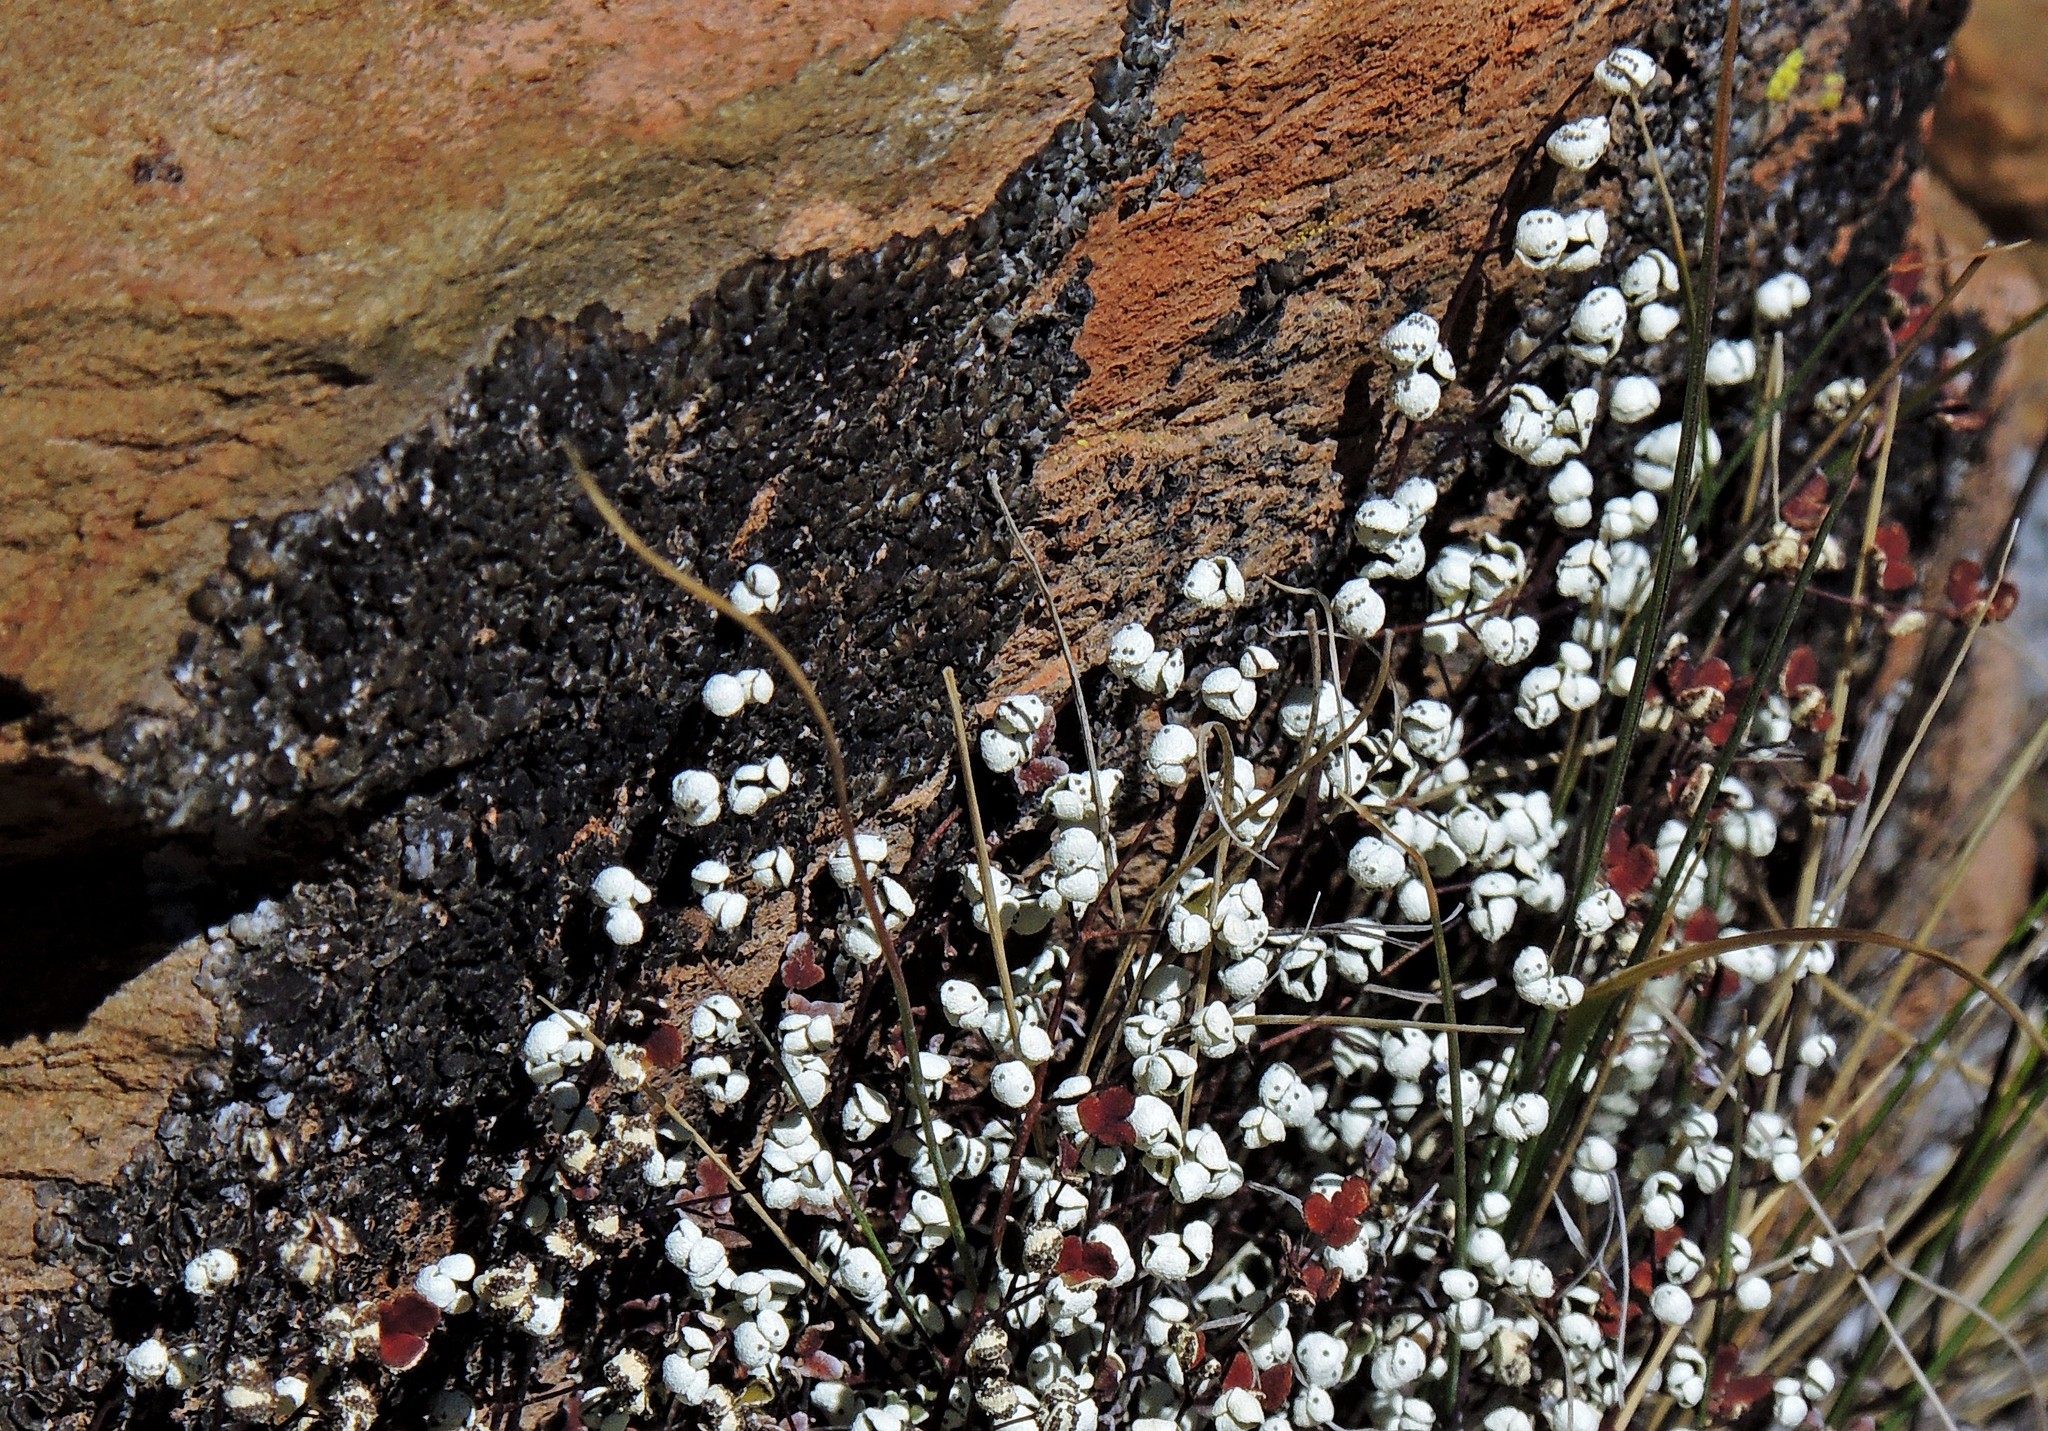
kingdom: Plantae
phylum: Tracheophyta
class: Polypodiopsida
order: Polypodiales
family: Pteridaceae
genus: Argyrochosma
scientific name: Argyrochosma nivea
